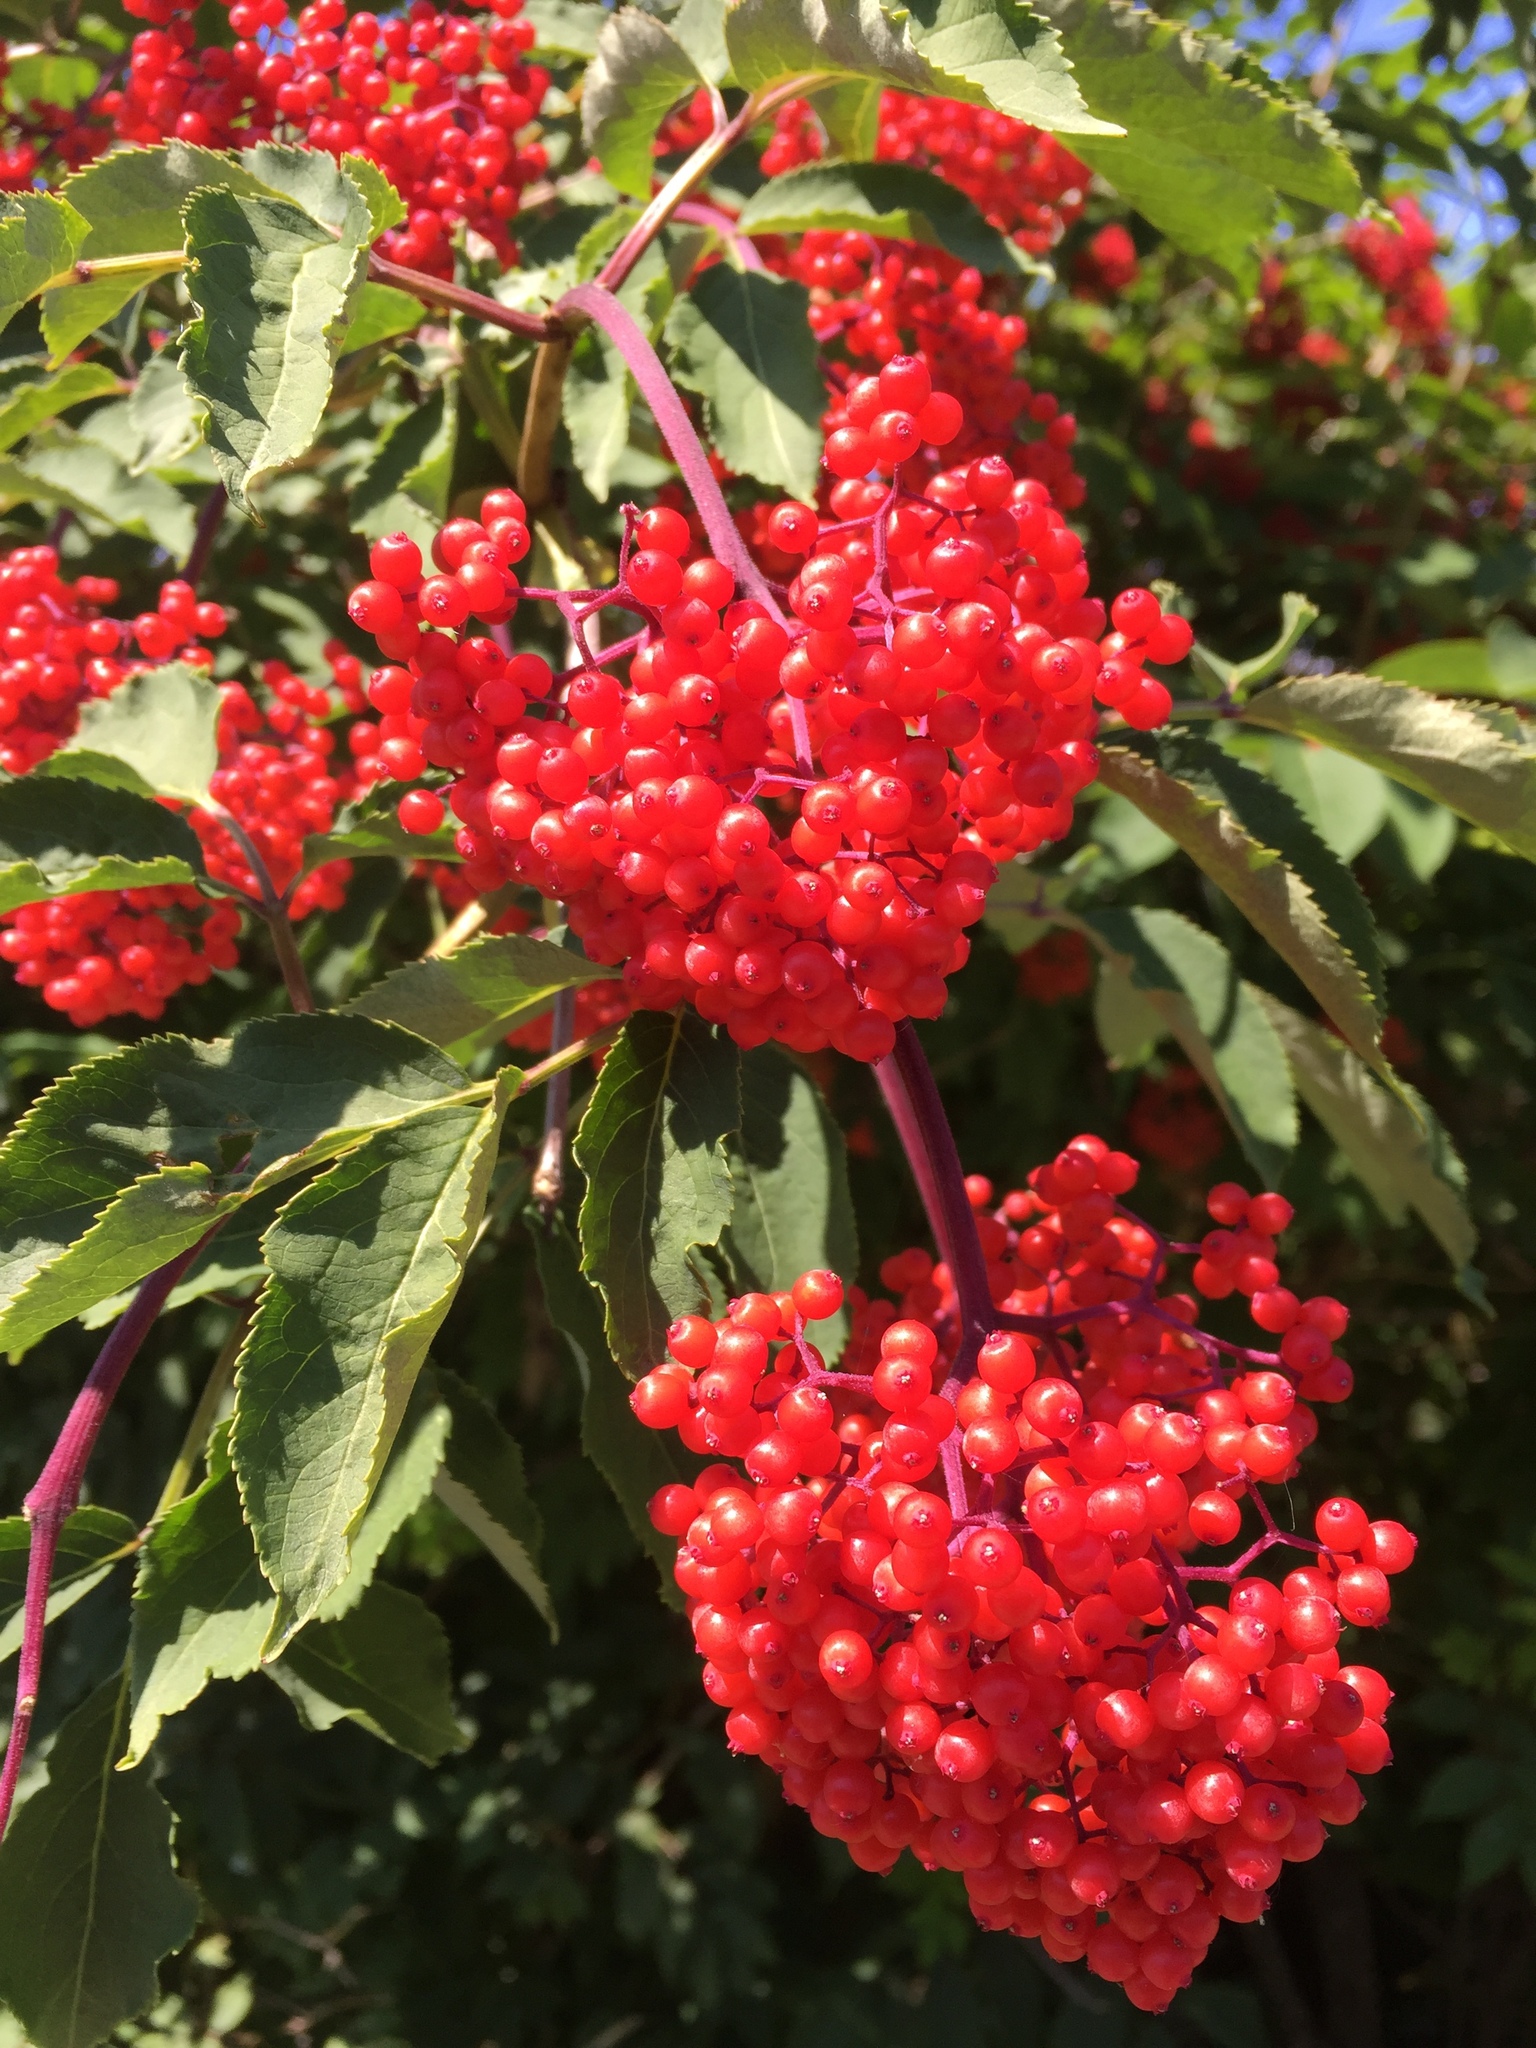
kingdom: Plantae
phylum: Tracheophyta
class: Magnoliopsida
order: Dipsacales
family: Viburnaceae
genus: Sambucus
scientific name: Sambucus racemosa
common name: Red-berried elder
